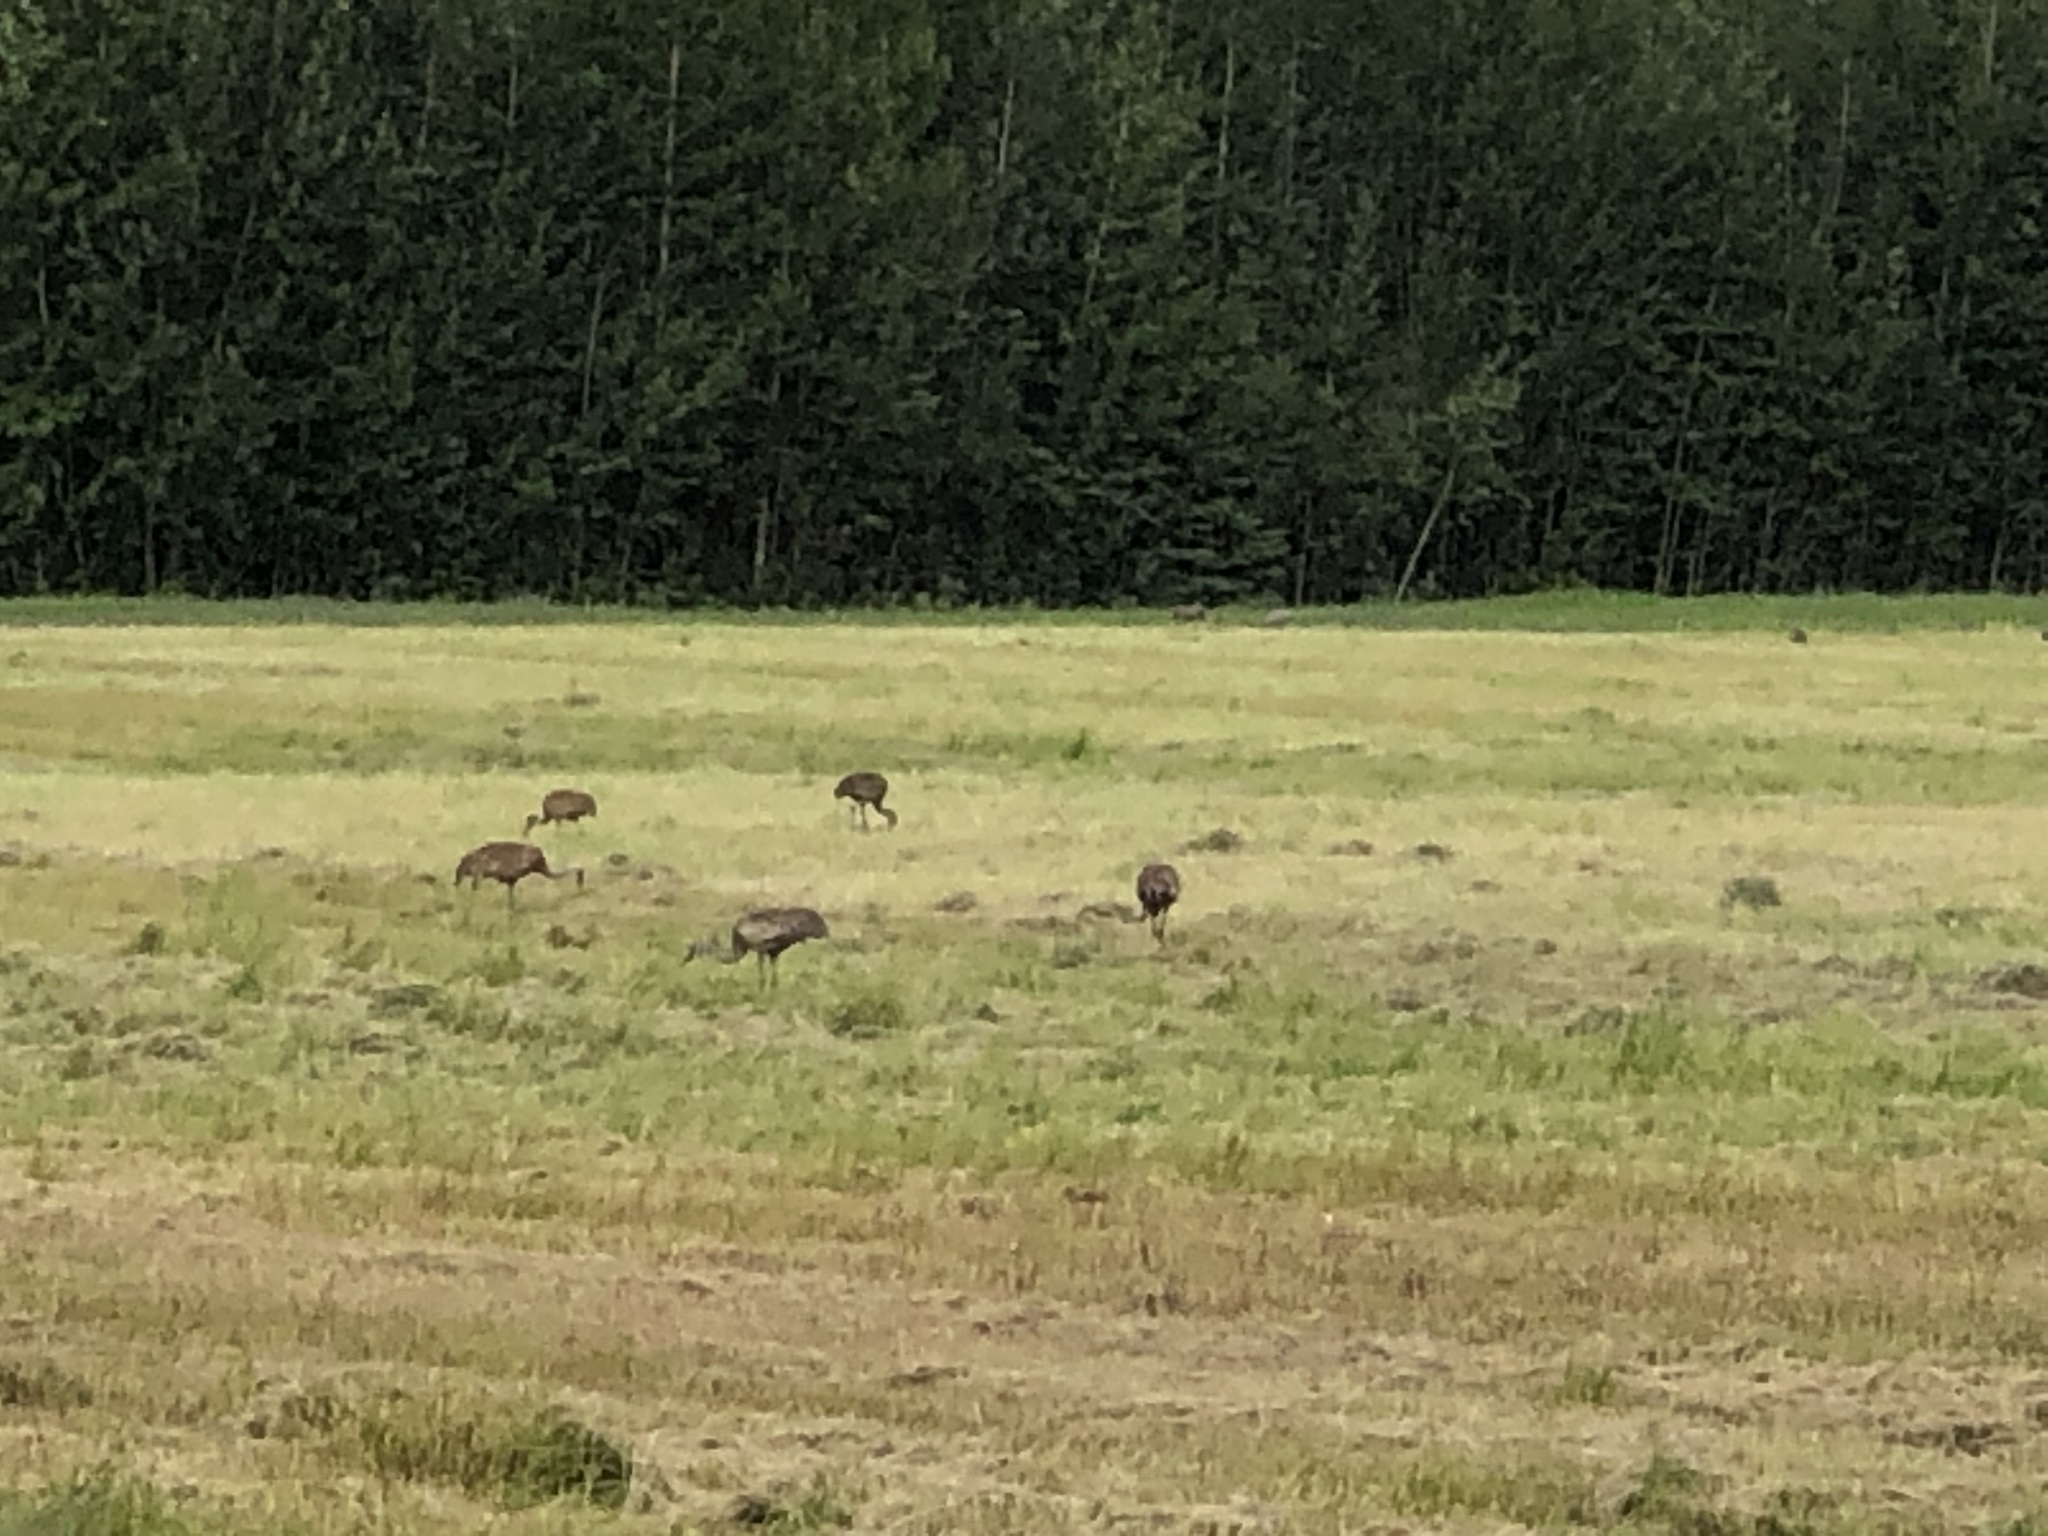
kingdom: Animalia
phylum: Chordata
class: Aves
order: Gruiformes
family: Gruidae
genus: Grus
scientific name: Grus canadensis
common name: Sandhill crane
